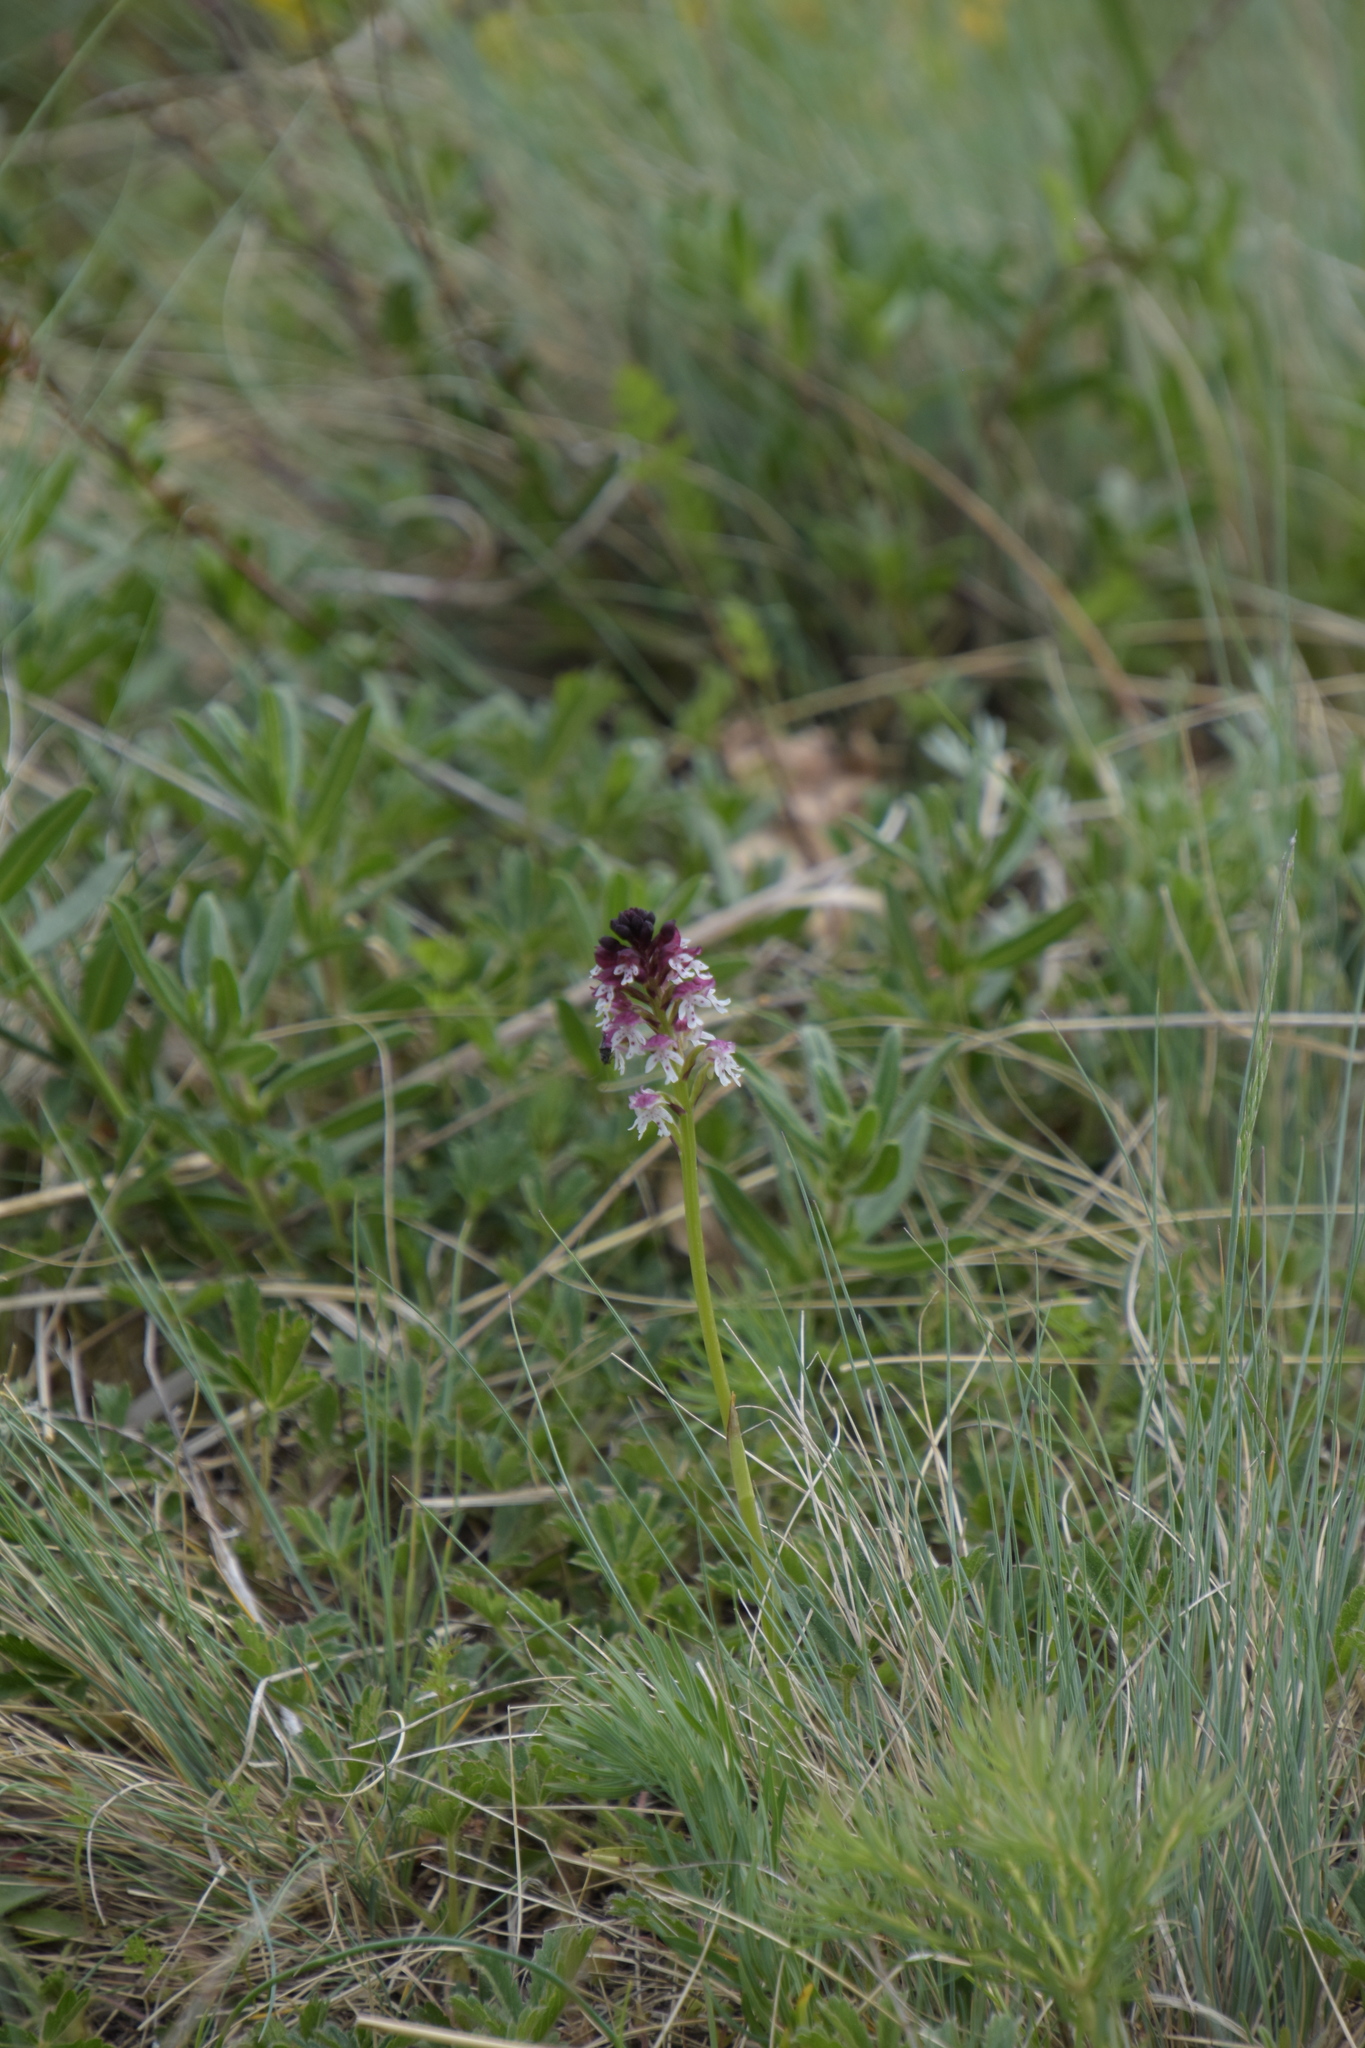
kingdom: Plantae
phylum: Tracheophyta
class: Liliopsida
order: Asparagales
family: Orchidaceae
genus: Neotinea
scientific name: Neotinea ustulata
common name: Burnt orchid
